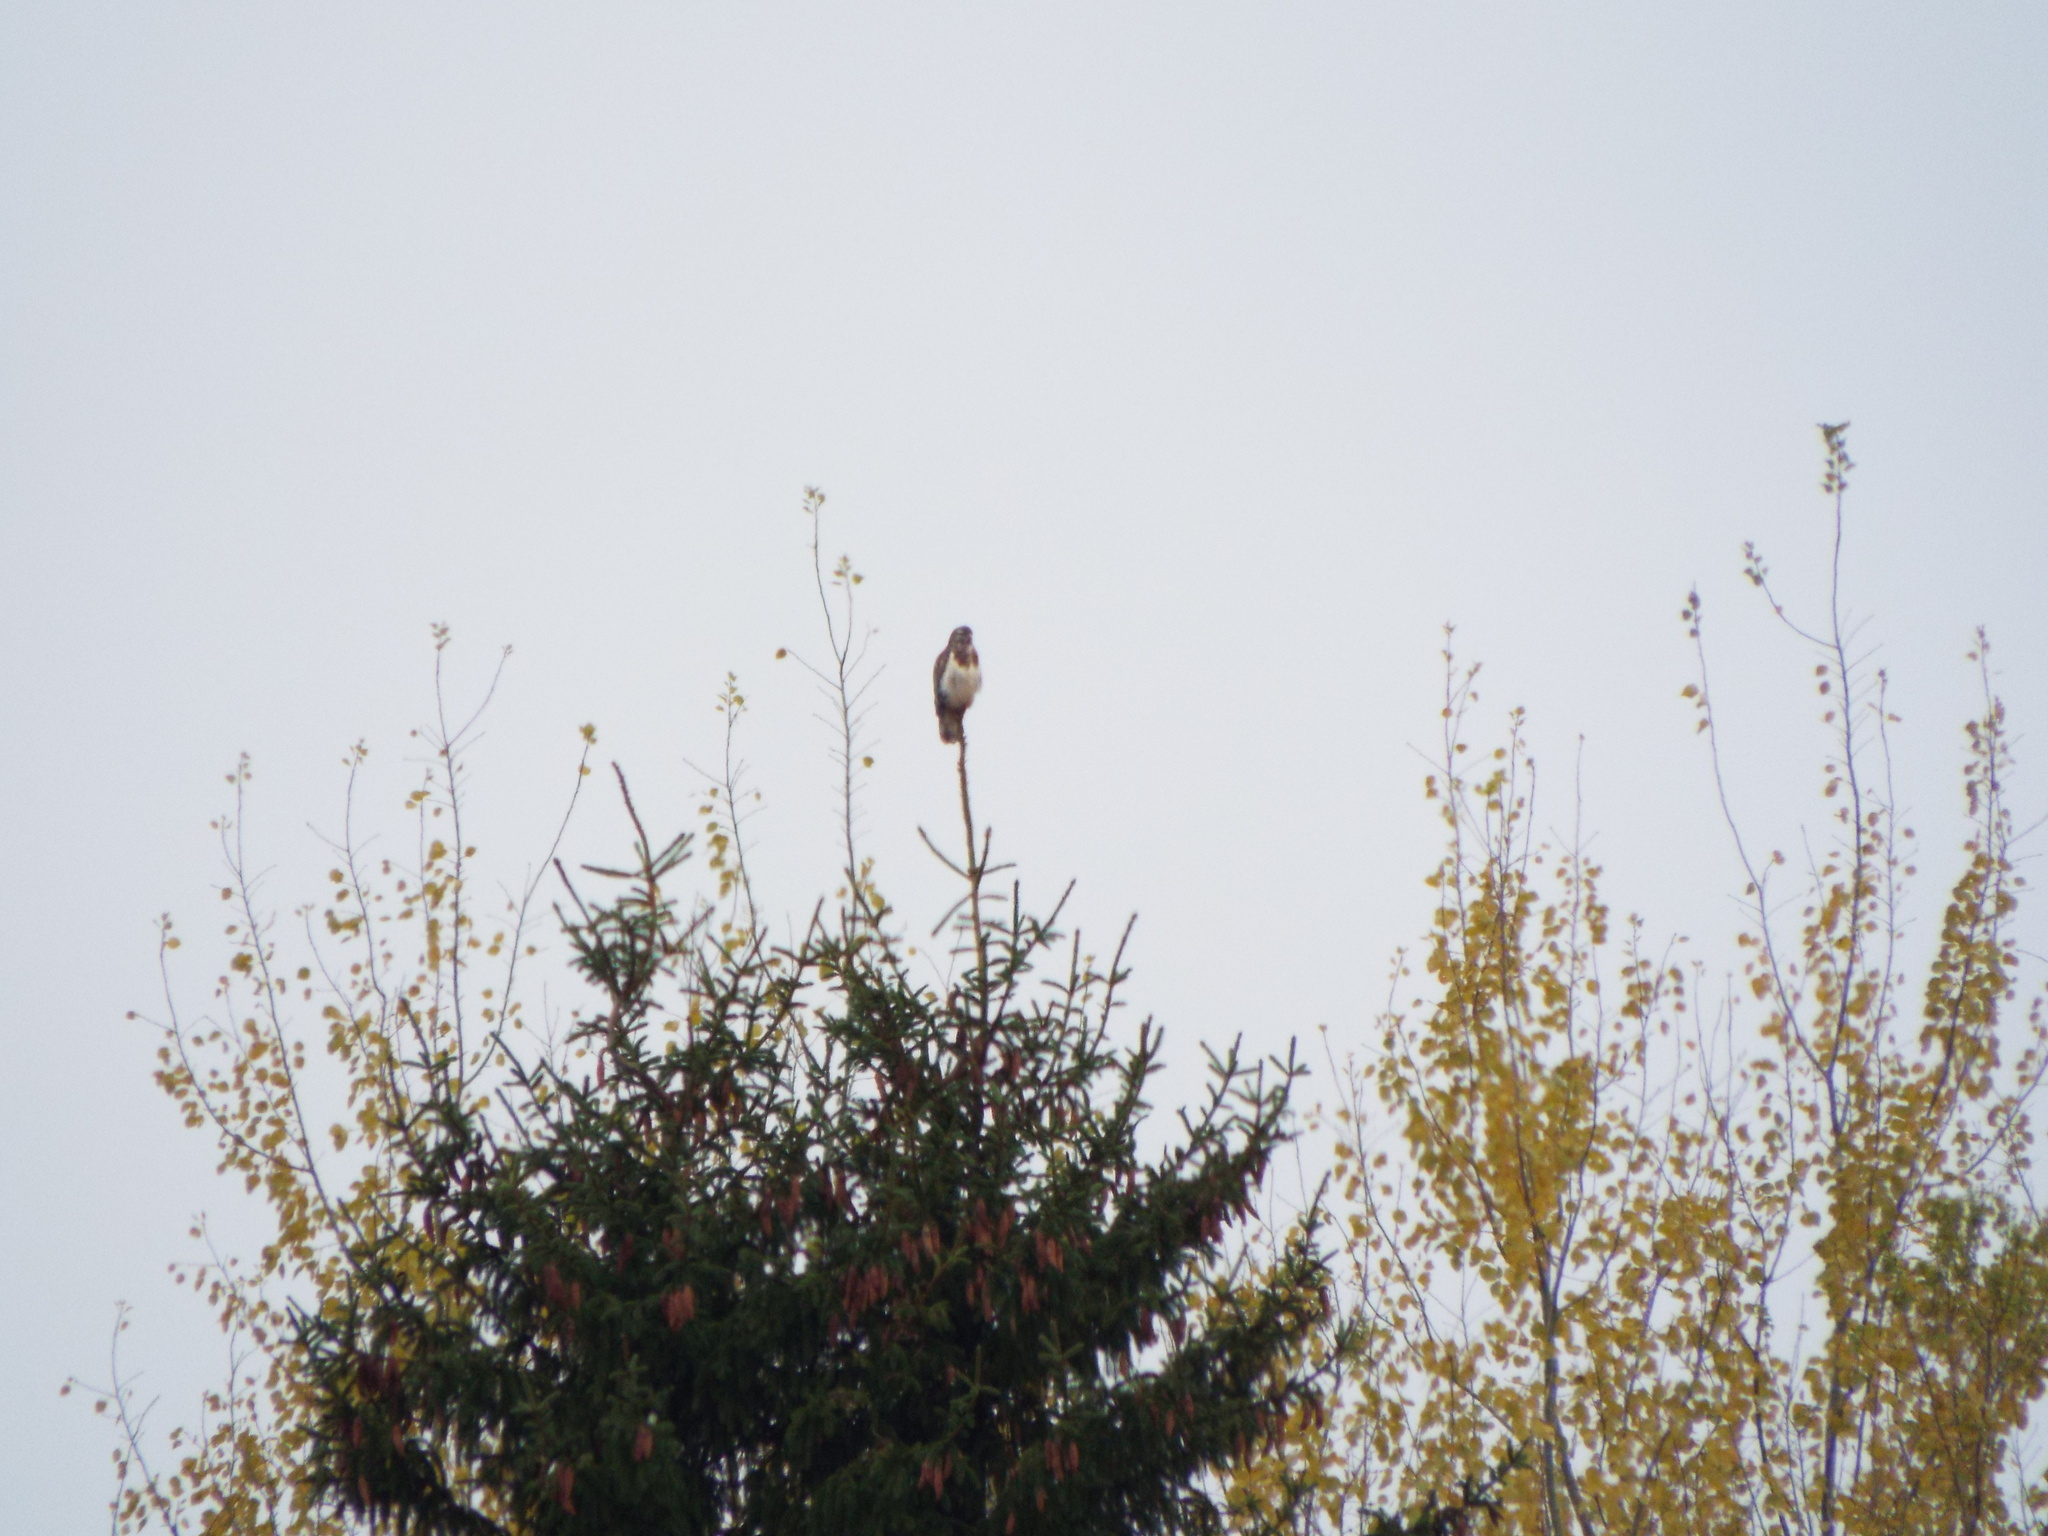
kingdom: Animalia
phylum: Chordata
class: Aves
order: Accipitriformes
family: Accipitridae
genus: Buteo
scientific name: Buteo buteo
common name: Common buzzard
